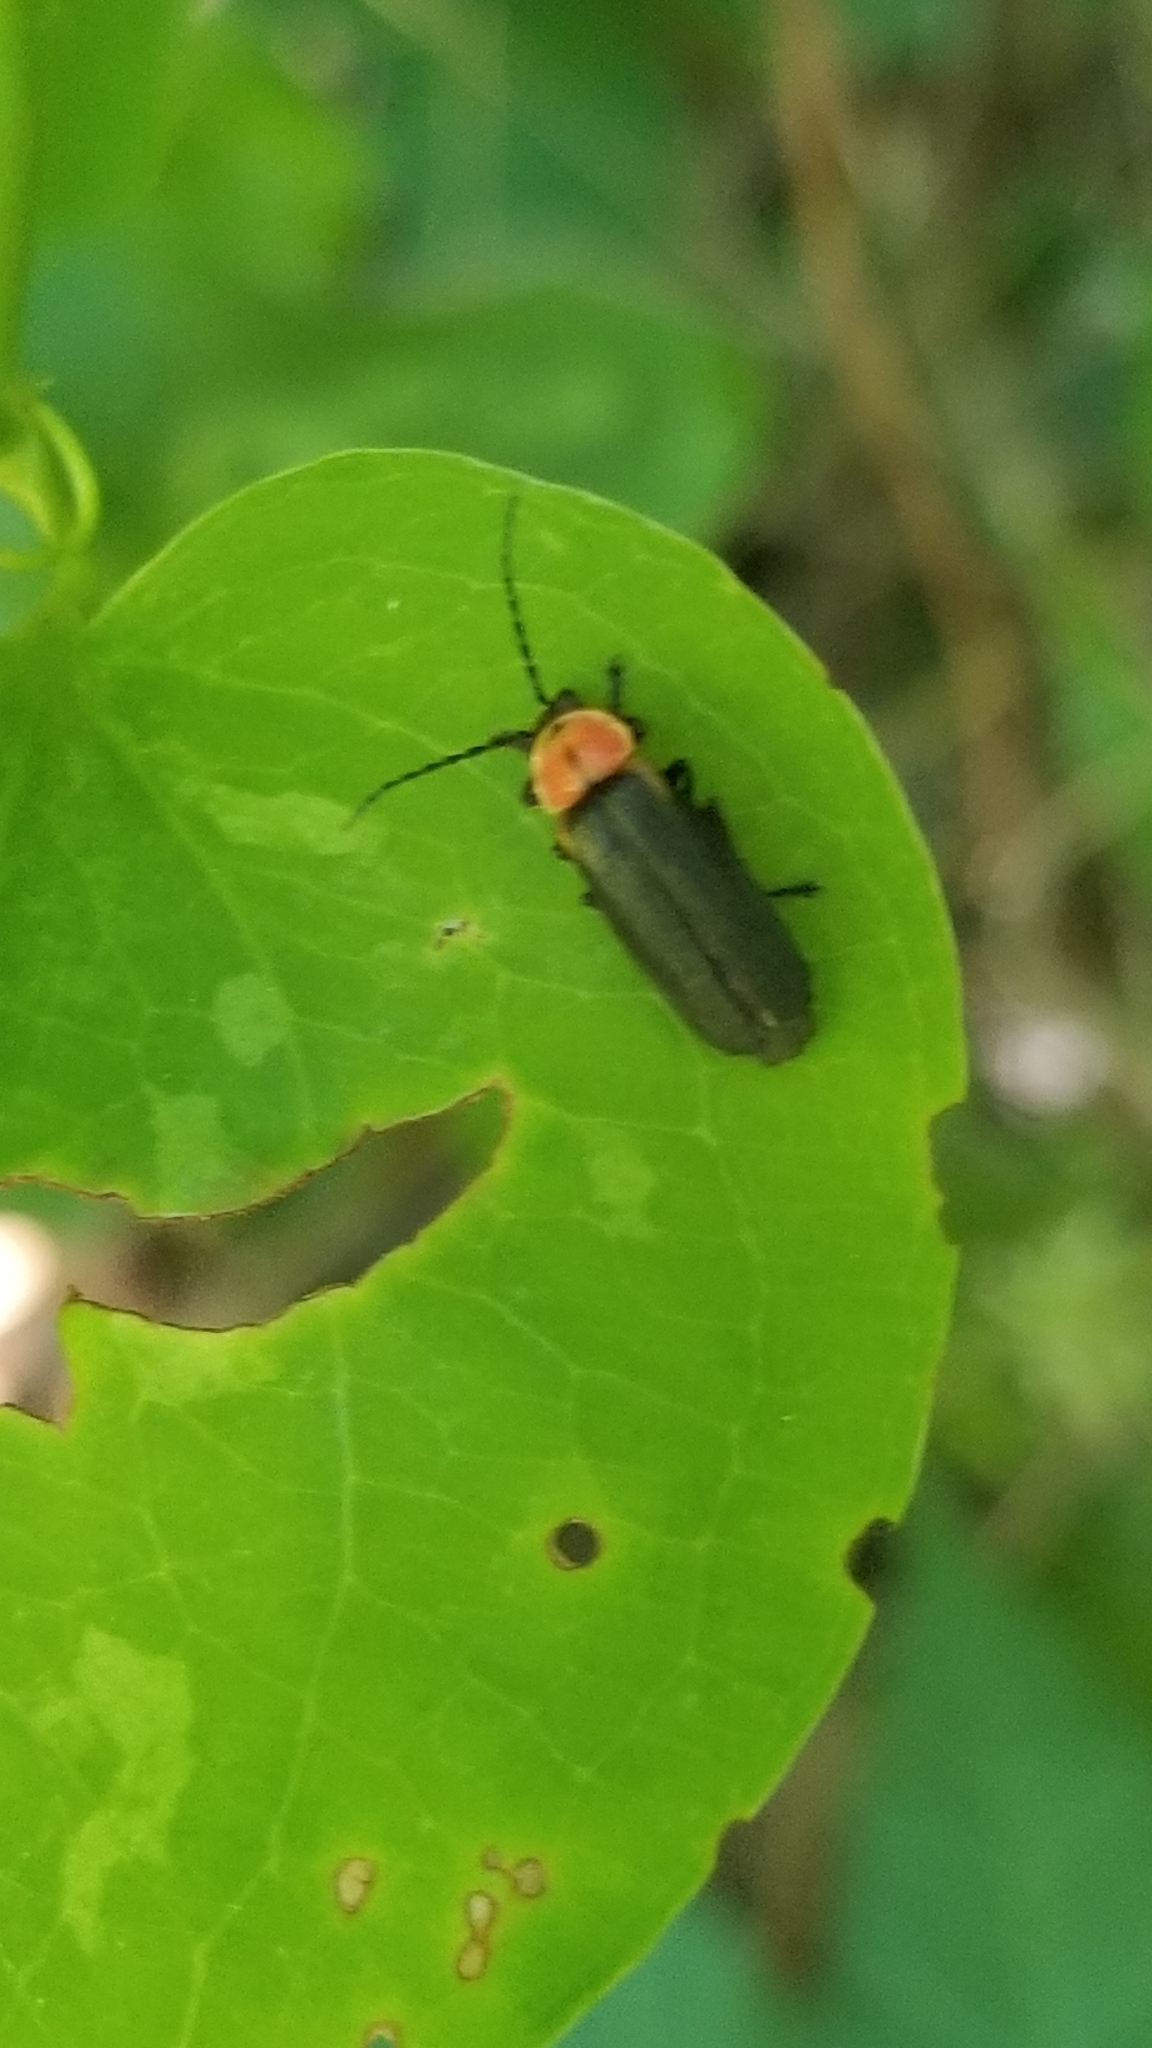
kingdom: Animalia
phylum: Arthropoda
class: Insecta
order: Coleoptera
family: Cantharidae
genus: Discodon
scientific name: Discodon planicolle
